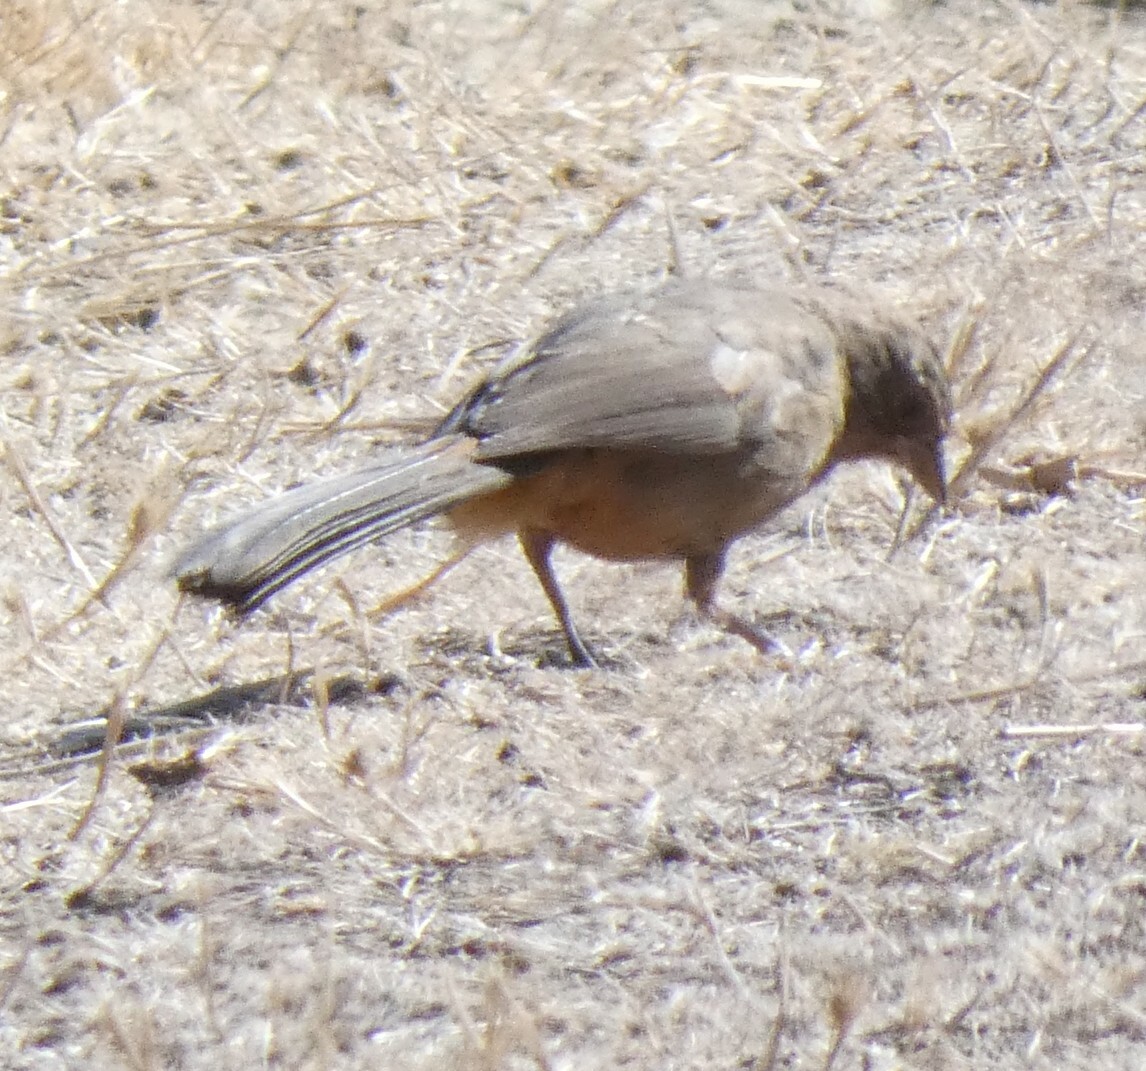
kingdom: Animalia
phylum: Chordata
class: Aves
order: Passeriformes
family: Passerellidae
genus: Melozone
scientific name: Melozone crissalis
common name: California towhee
